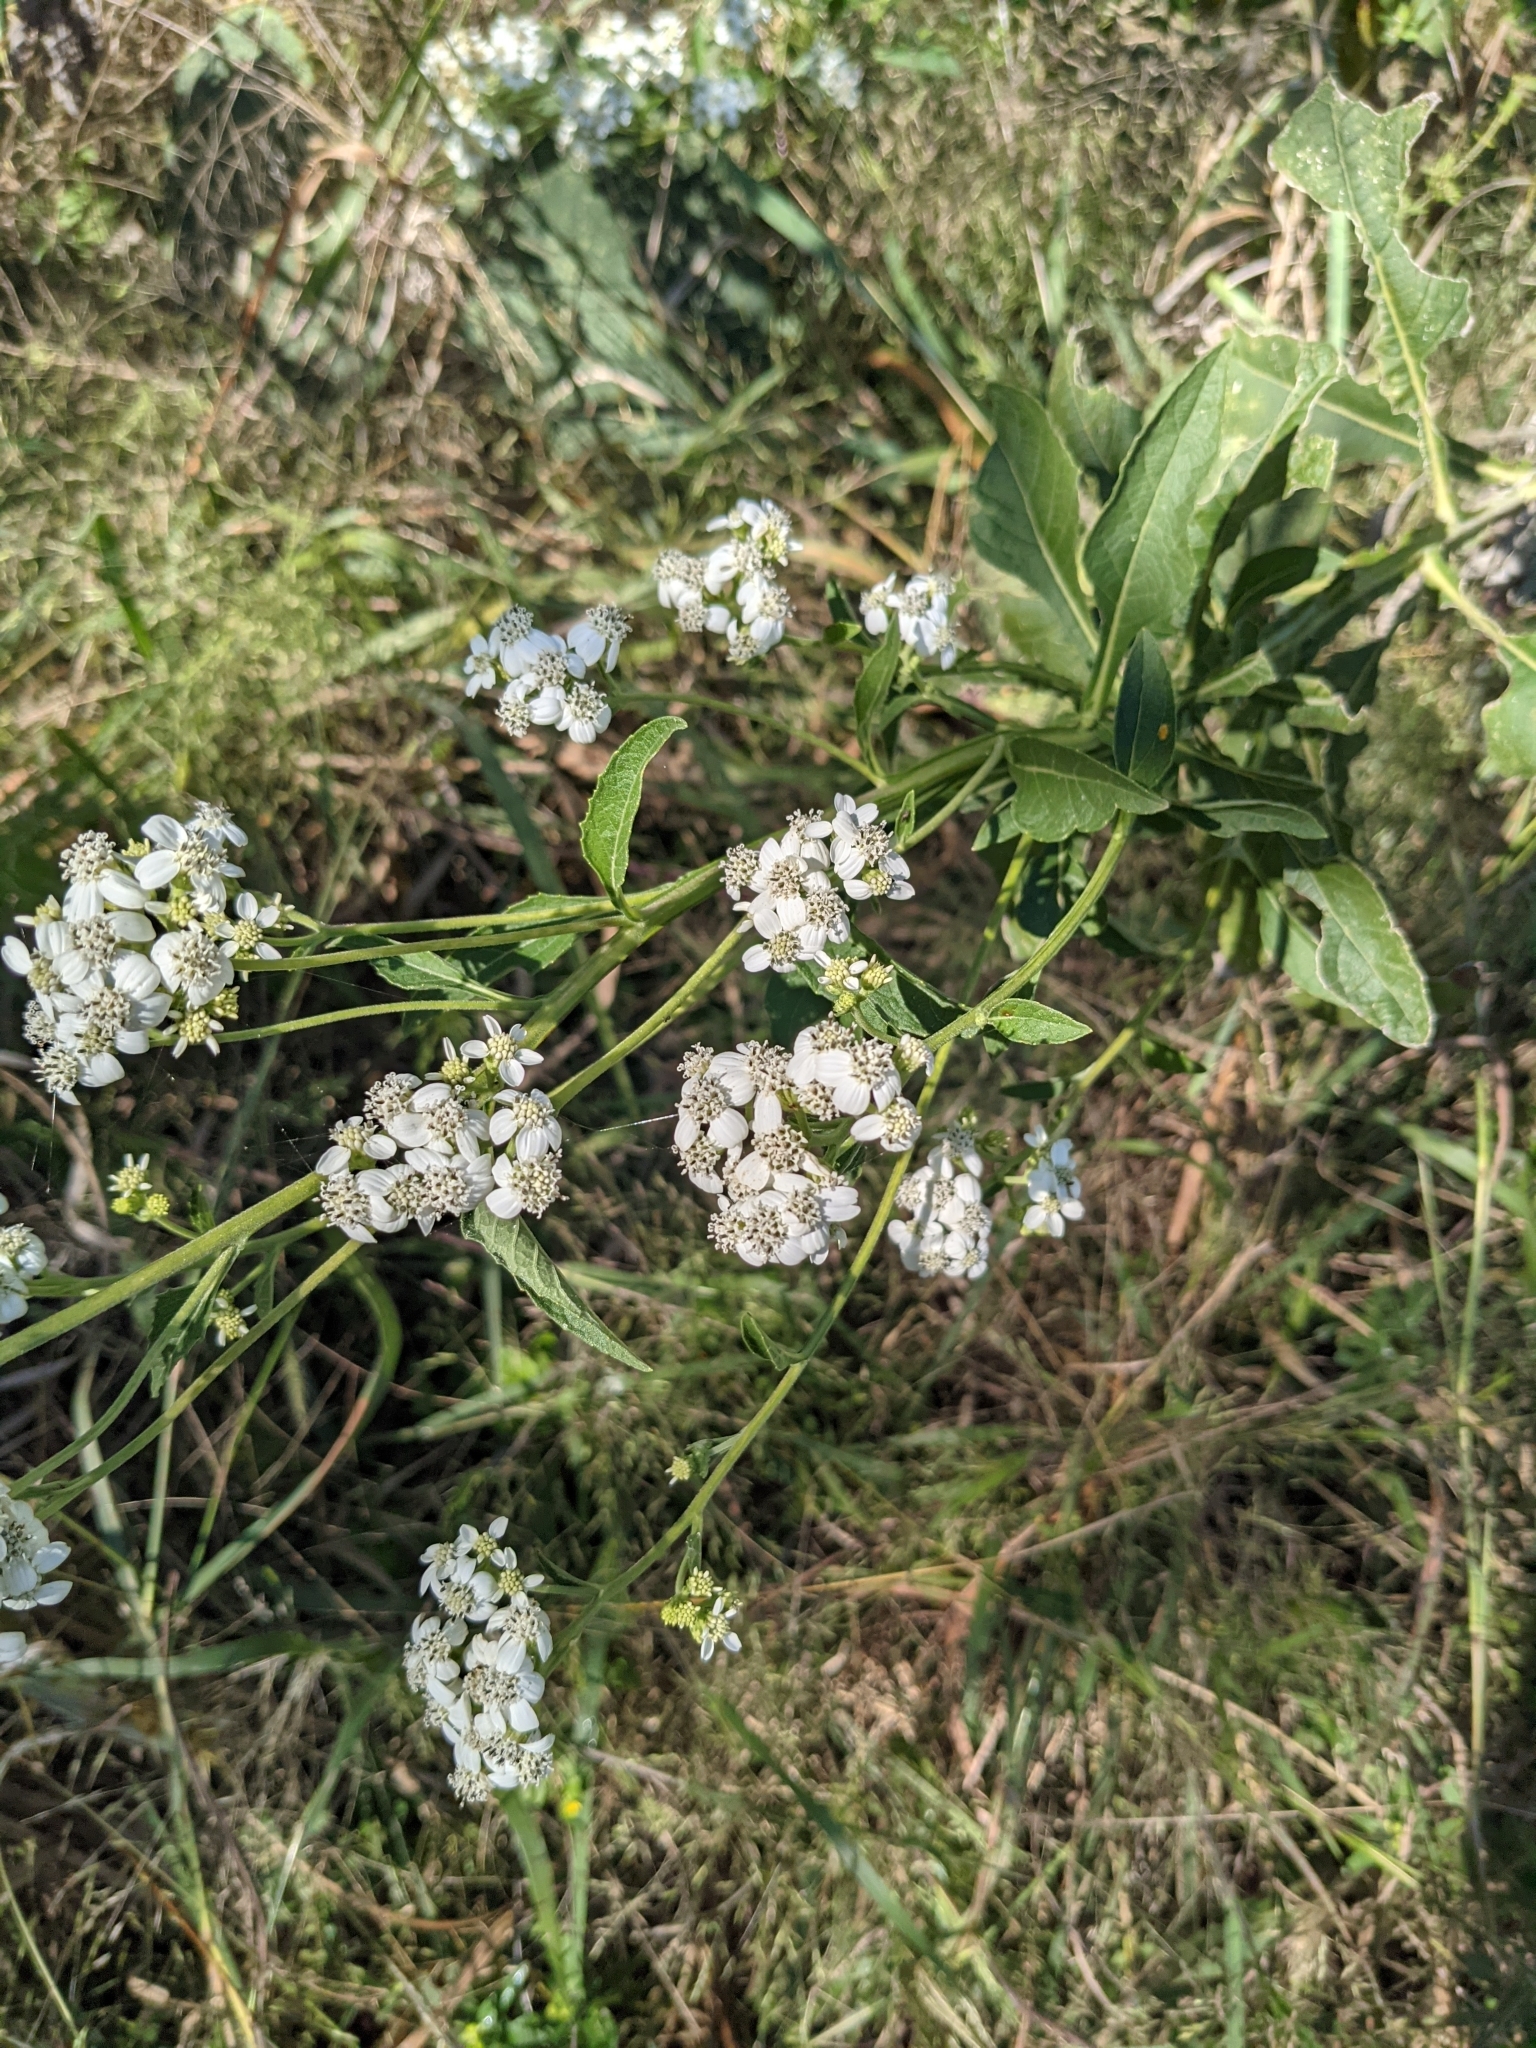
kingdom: Plantae
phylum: Tracheophyta
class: Magnoliopsida
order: Asterales
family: Asteraceae
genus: Verbesina
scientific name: Verbesina microptera
